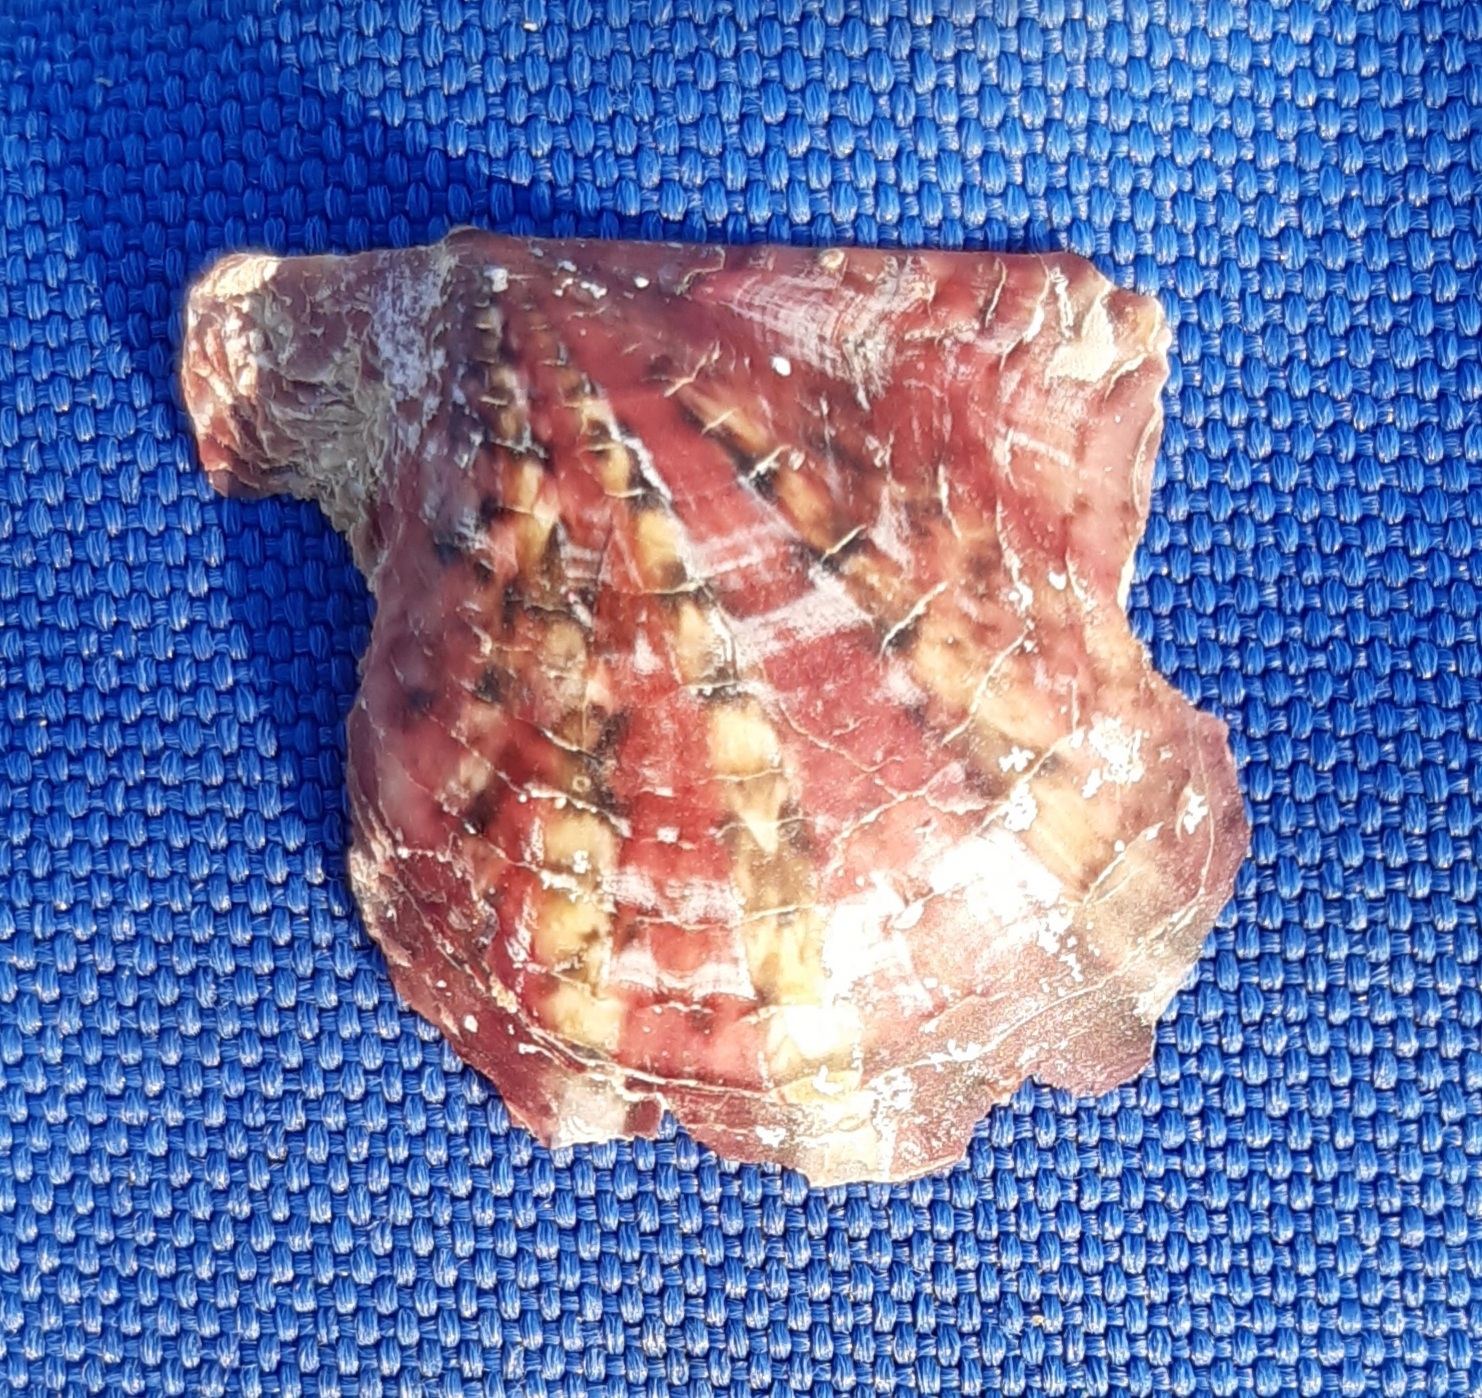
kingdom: Animalia
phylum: Mollusca
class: Bivalvia
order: Ostreida
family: Margaritidae
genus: Pinctada
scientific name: Pinctada radiata
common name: Rayed pearl oyster
